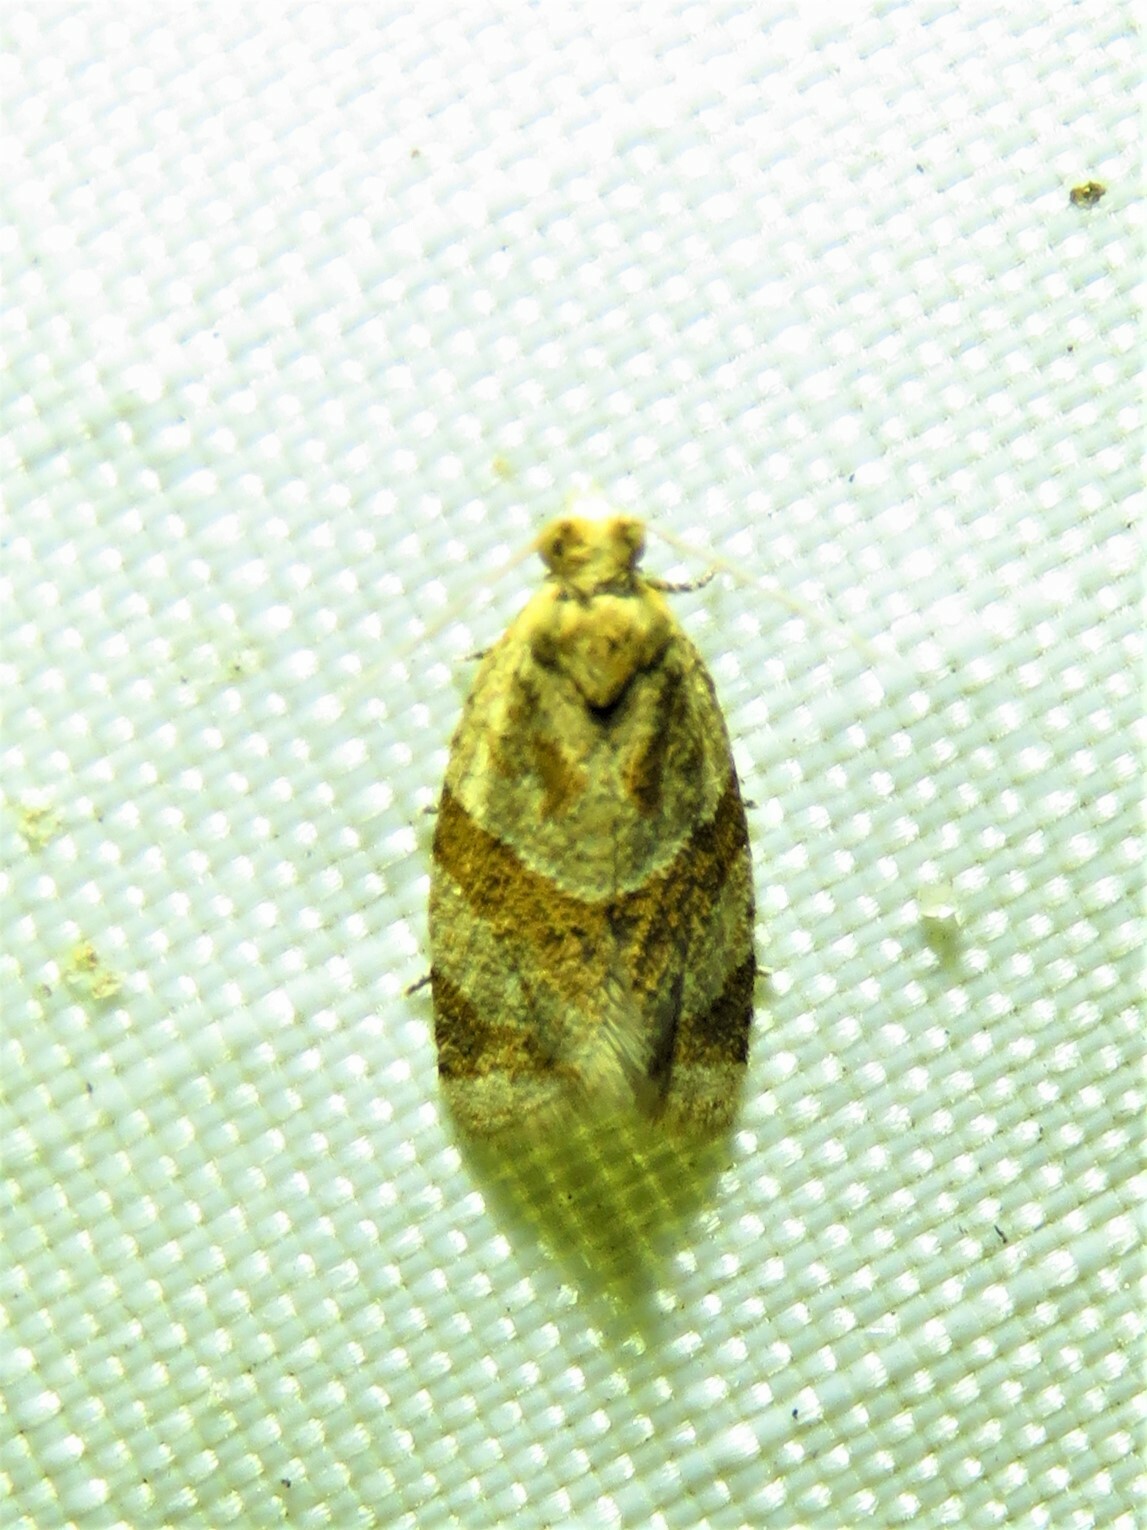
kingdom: Animalia
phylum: Arthropoda
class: Insecta
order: Lepidoptera
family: Tortricidae
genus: Clepsis
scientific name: Clepsis peritana
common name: Garden tortrix
